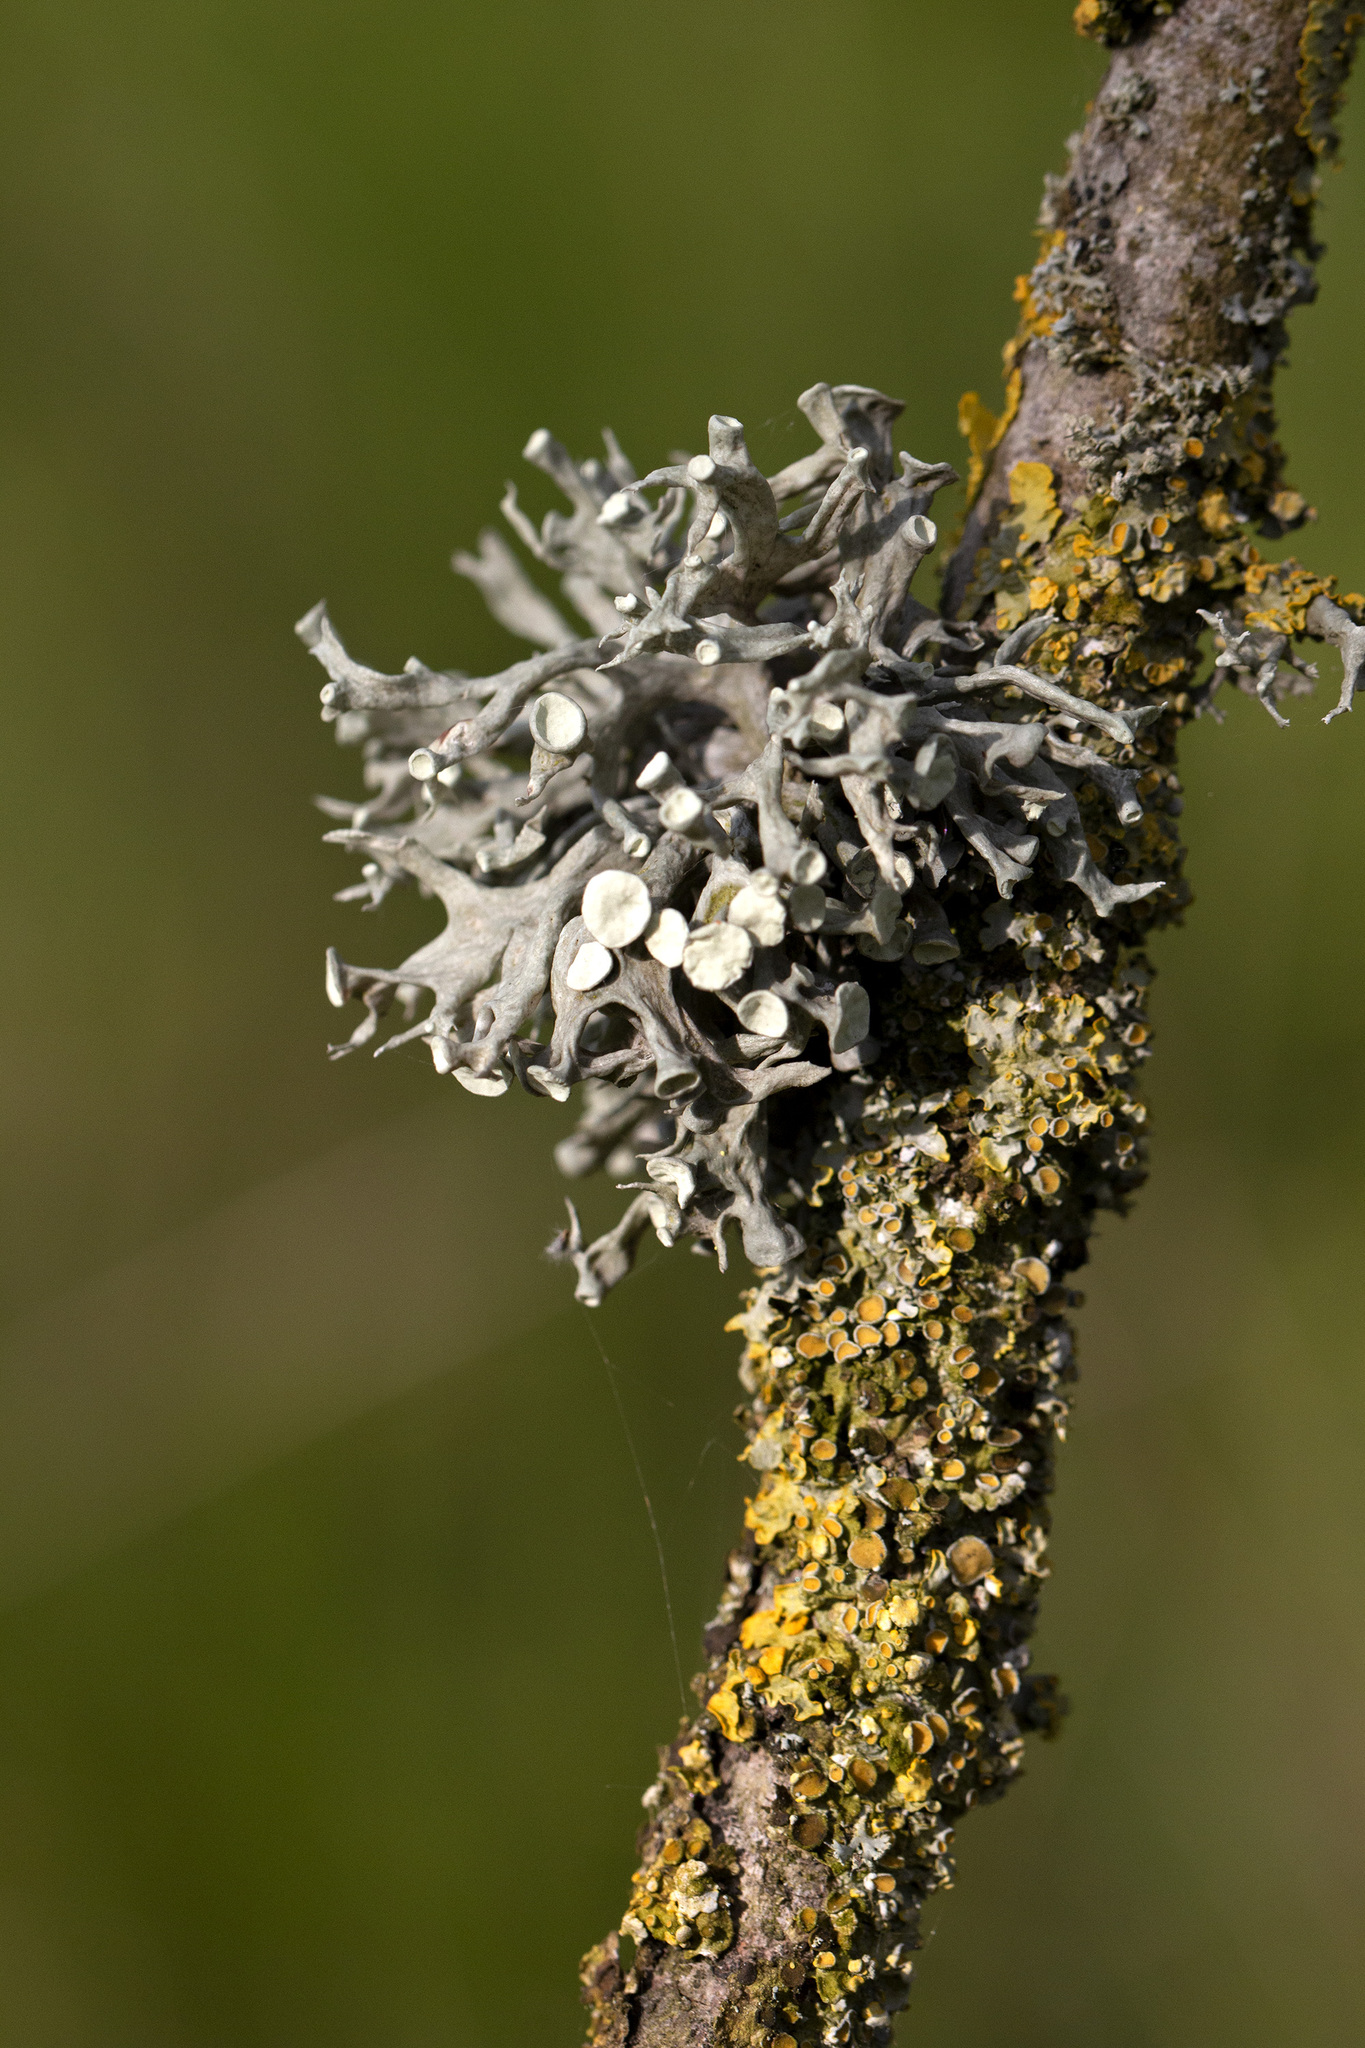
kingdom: Fungi
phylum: Ascomycota
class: Lecanoromycetes
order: Lecanorales
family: Ramalinaceae
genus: Ramalina
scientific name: Ramalina fastigiata
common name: Dotted ribbon lichen
